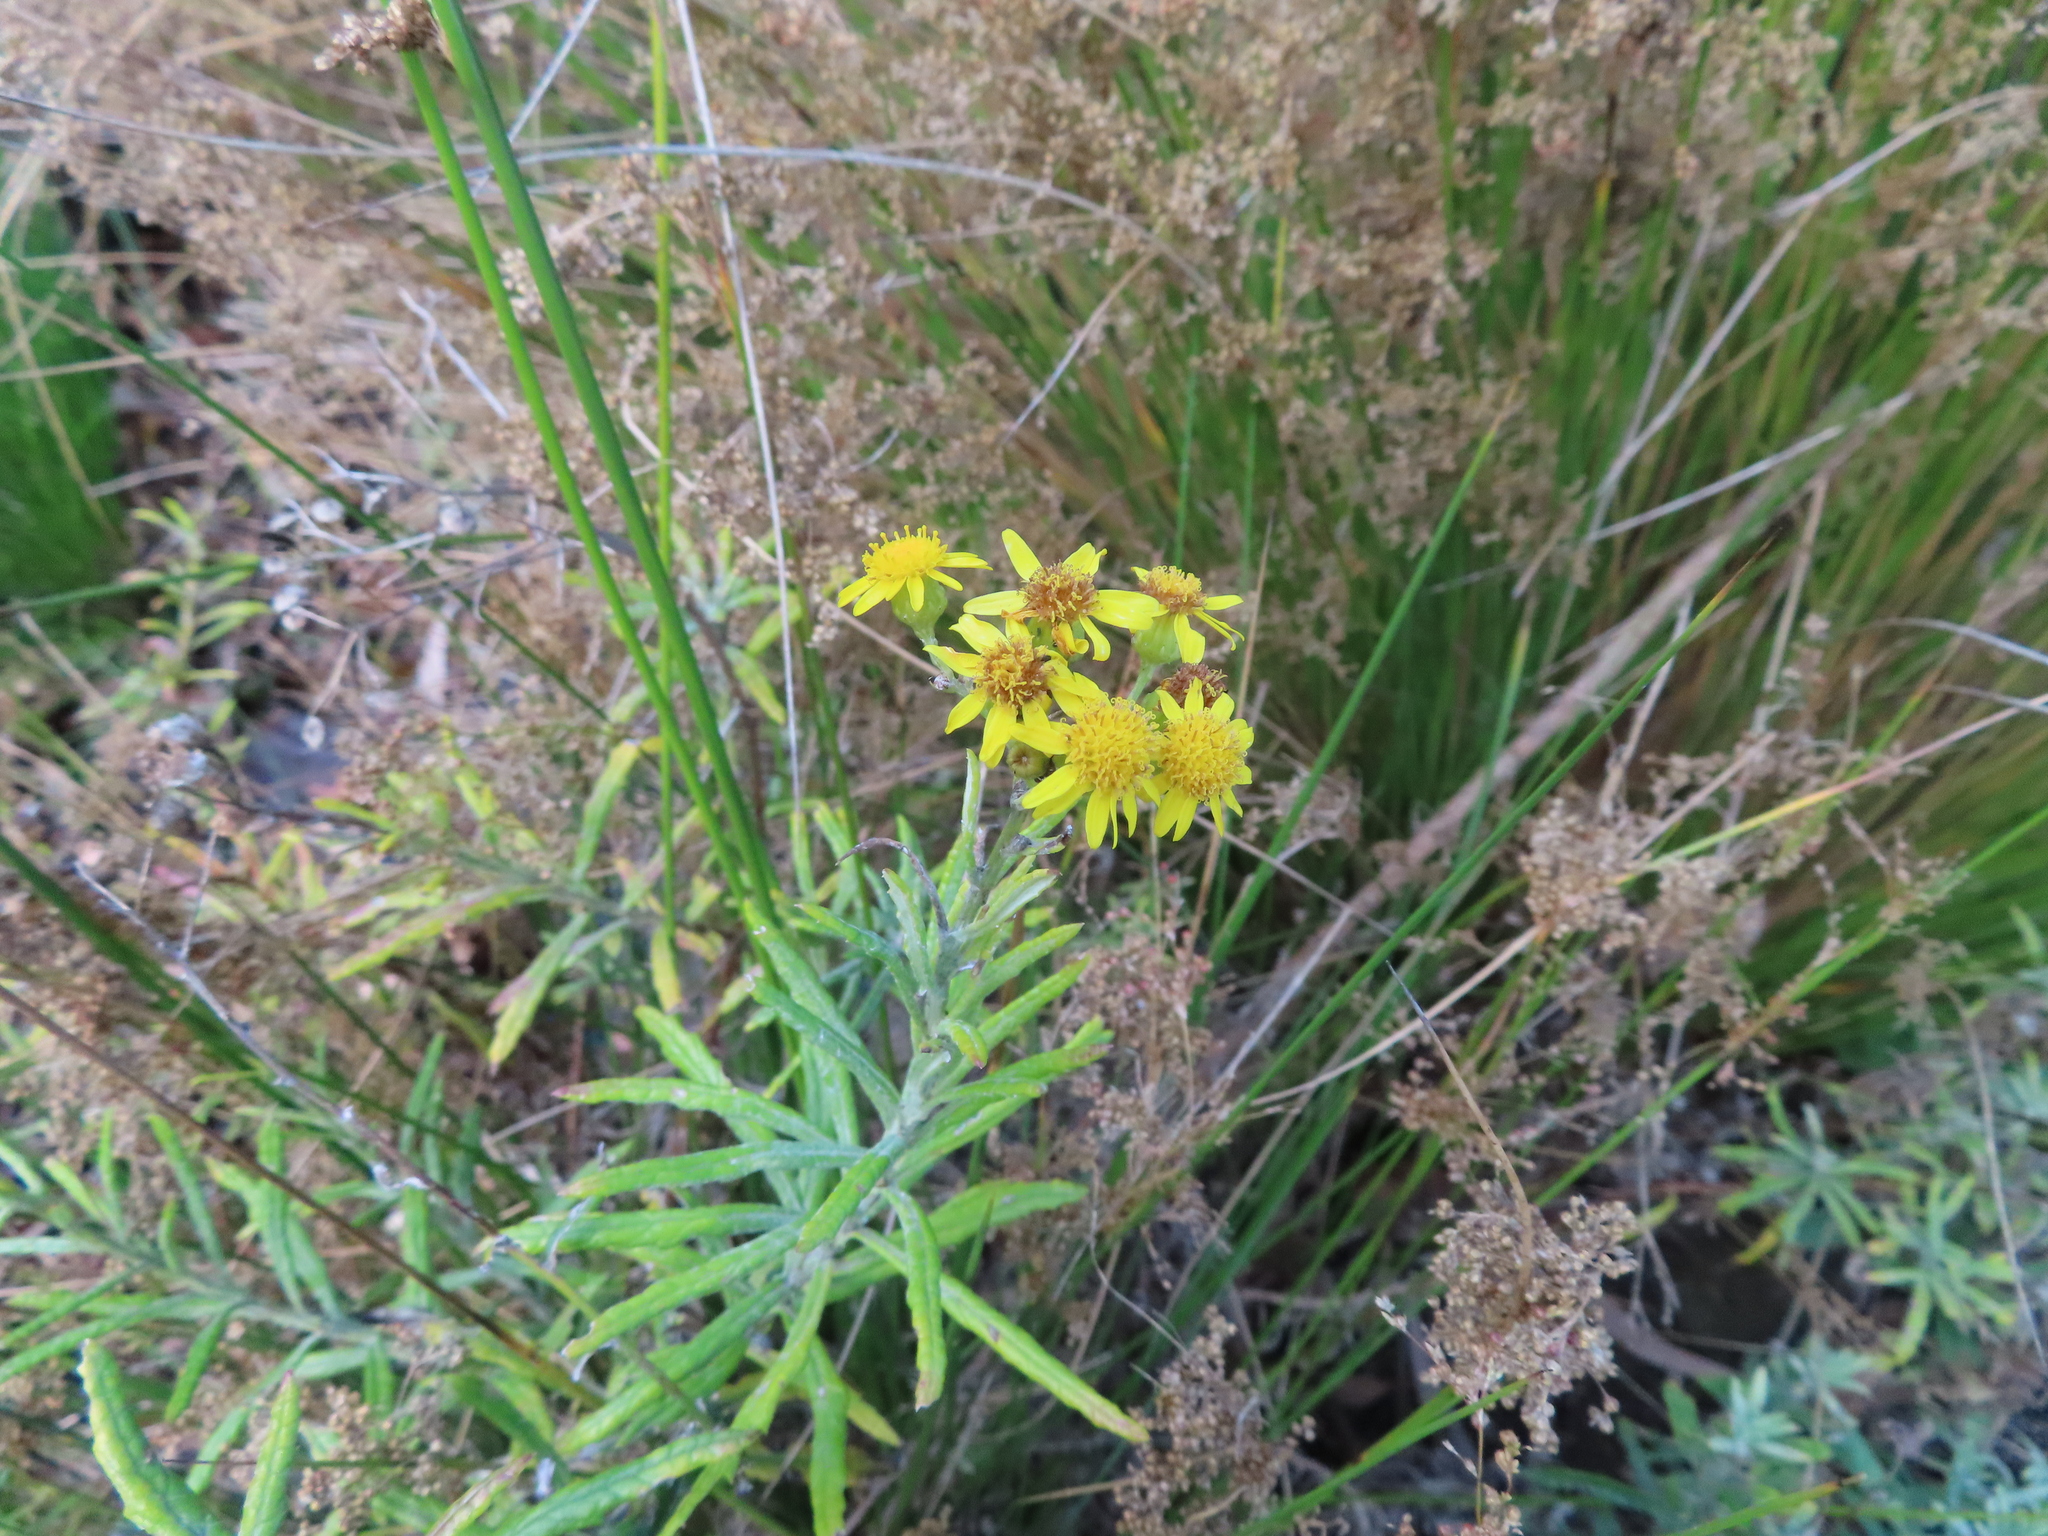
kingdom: Plantae
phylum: Tracheophyta
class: Magnoliopsida
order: Asterales
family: Asteraceae
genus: Senecio
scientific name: Senecio pterophorus
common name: Shoddy ragwort
